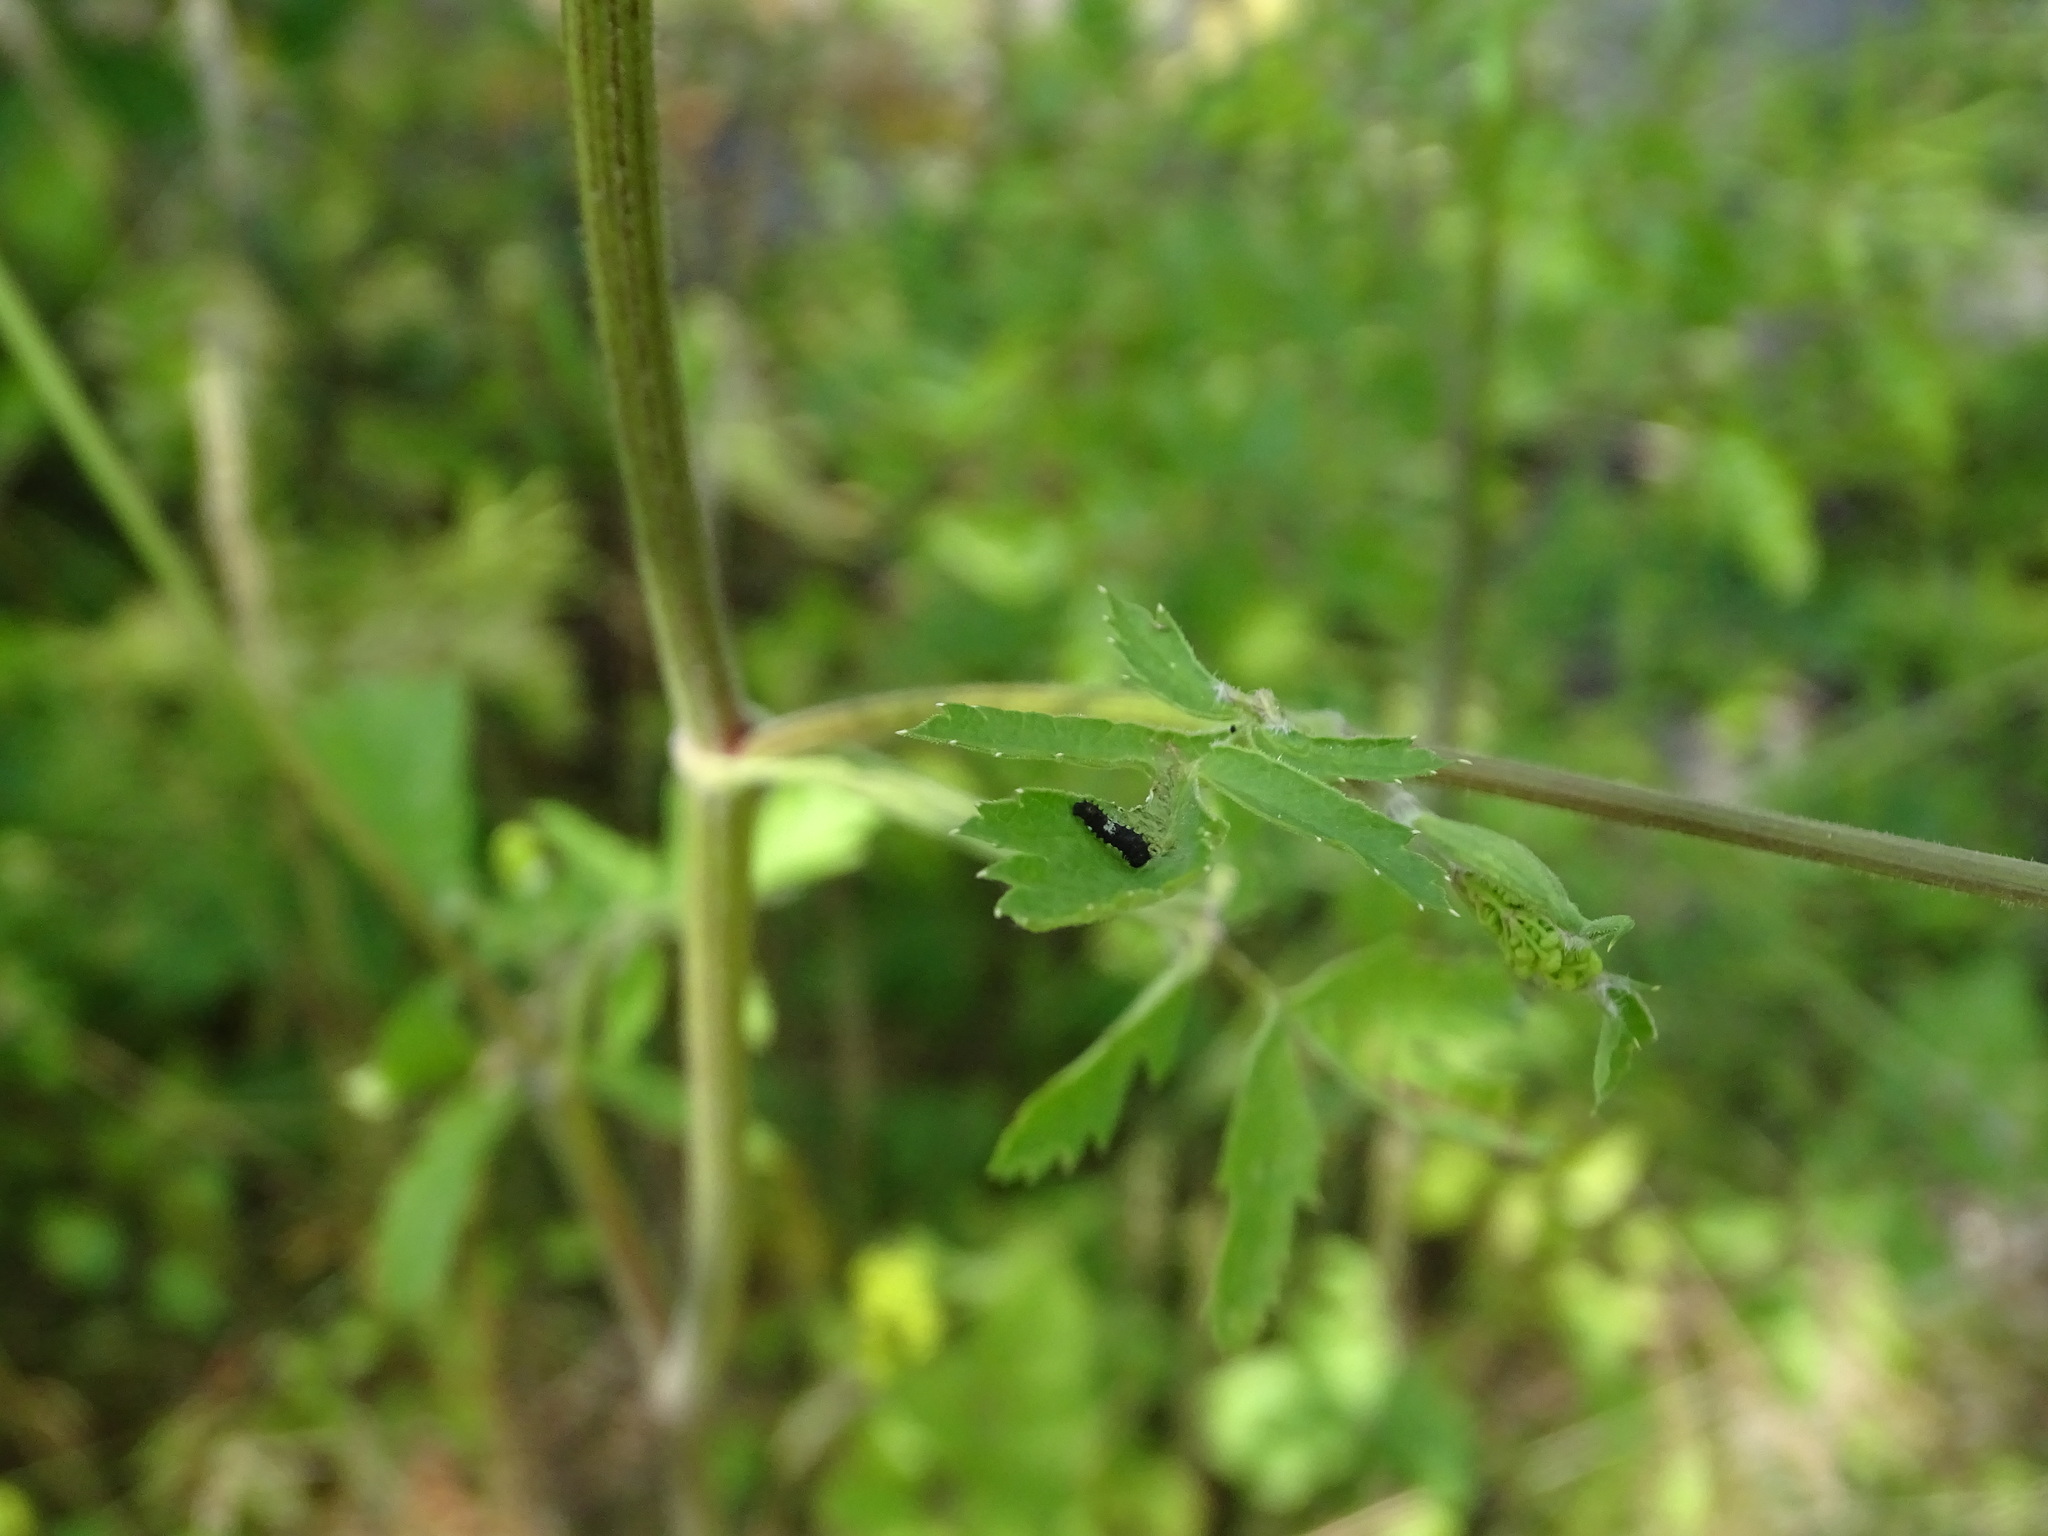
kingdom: Animalia
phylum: Arthropoda
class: Insecta
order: Lepidoptera
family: Papilionidae
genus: Papilio
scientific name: Papilio machaon
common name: Swallowtail
